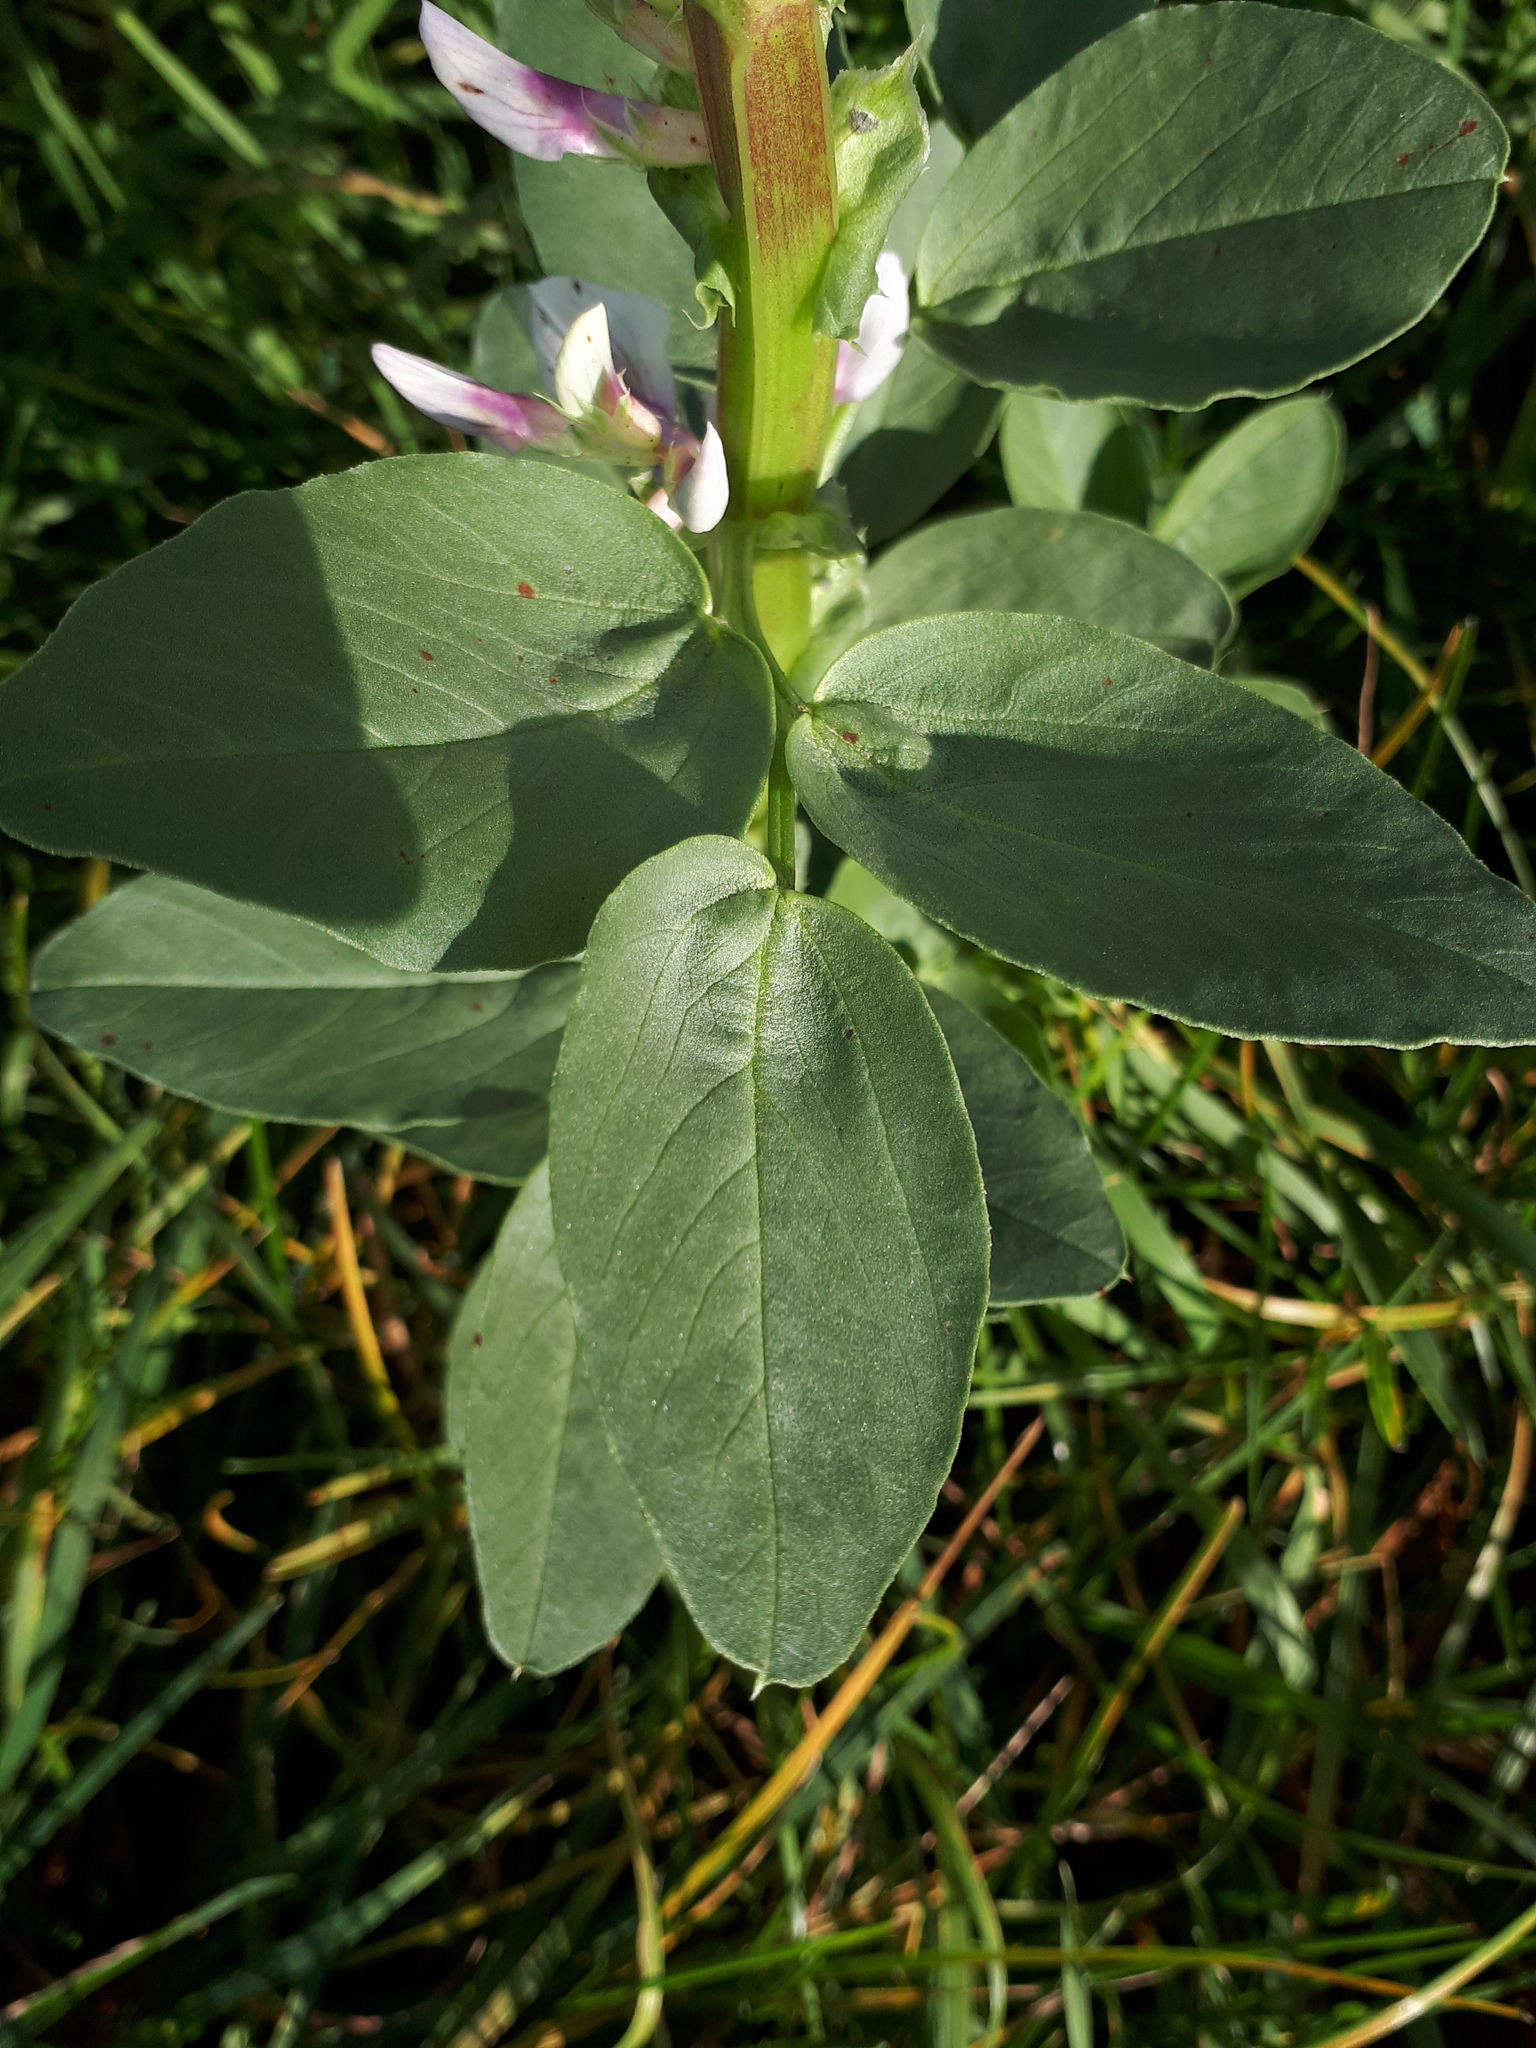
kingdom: Plantae
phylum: Tracheophyta
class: Magnoliopsida
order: Fabales
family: Fabaceae
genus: Vicia
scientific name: Vicia faba
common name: Broad bean
